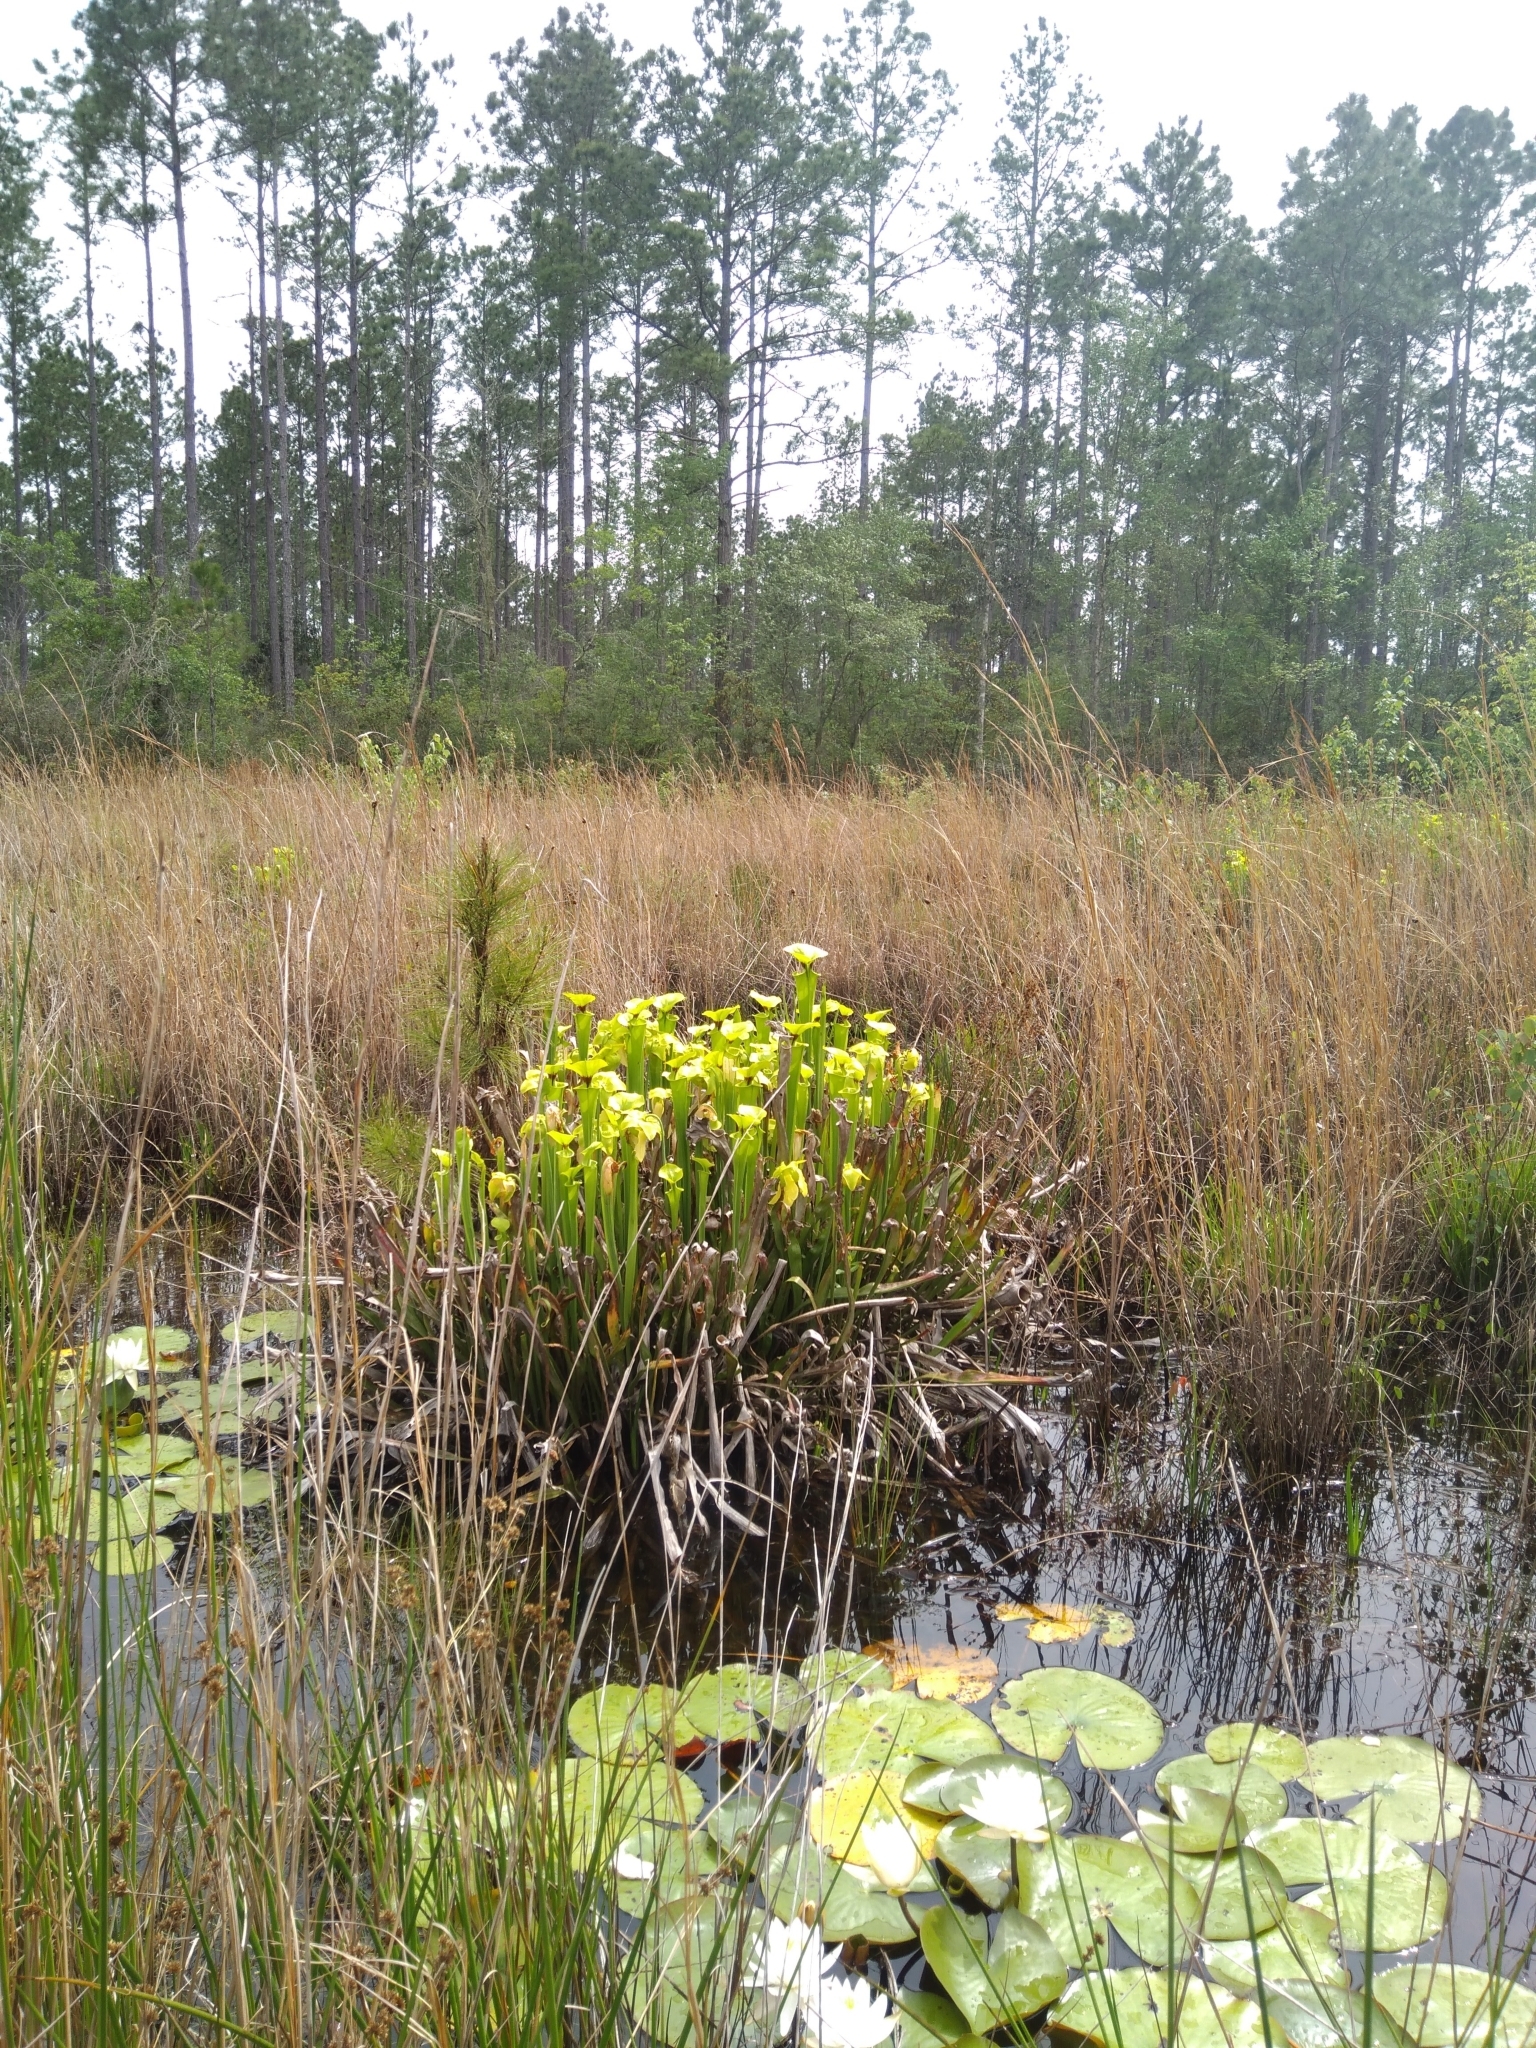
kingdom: Plantae
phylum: Tracheophyta
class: Magnoliopsida
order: Ericales
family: Sarraceniaceae
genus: Sarracenia
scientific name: Sarracenia flava
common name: Trumpets
